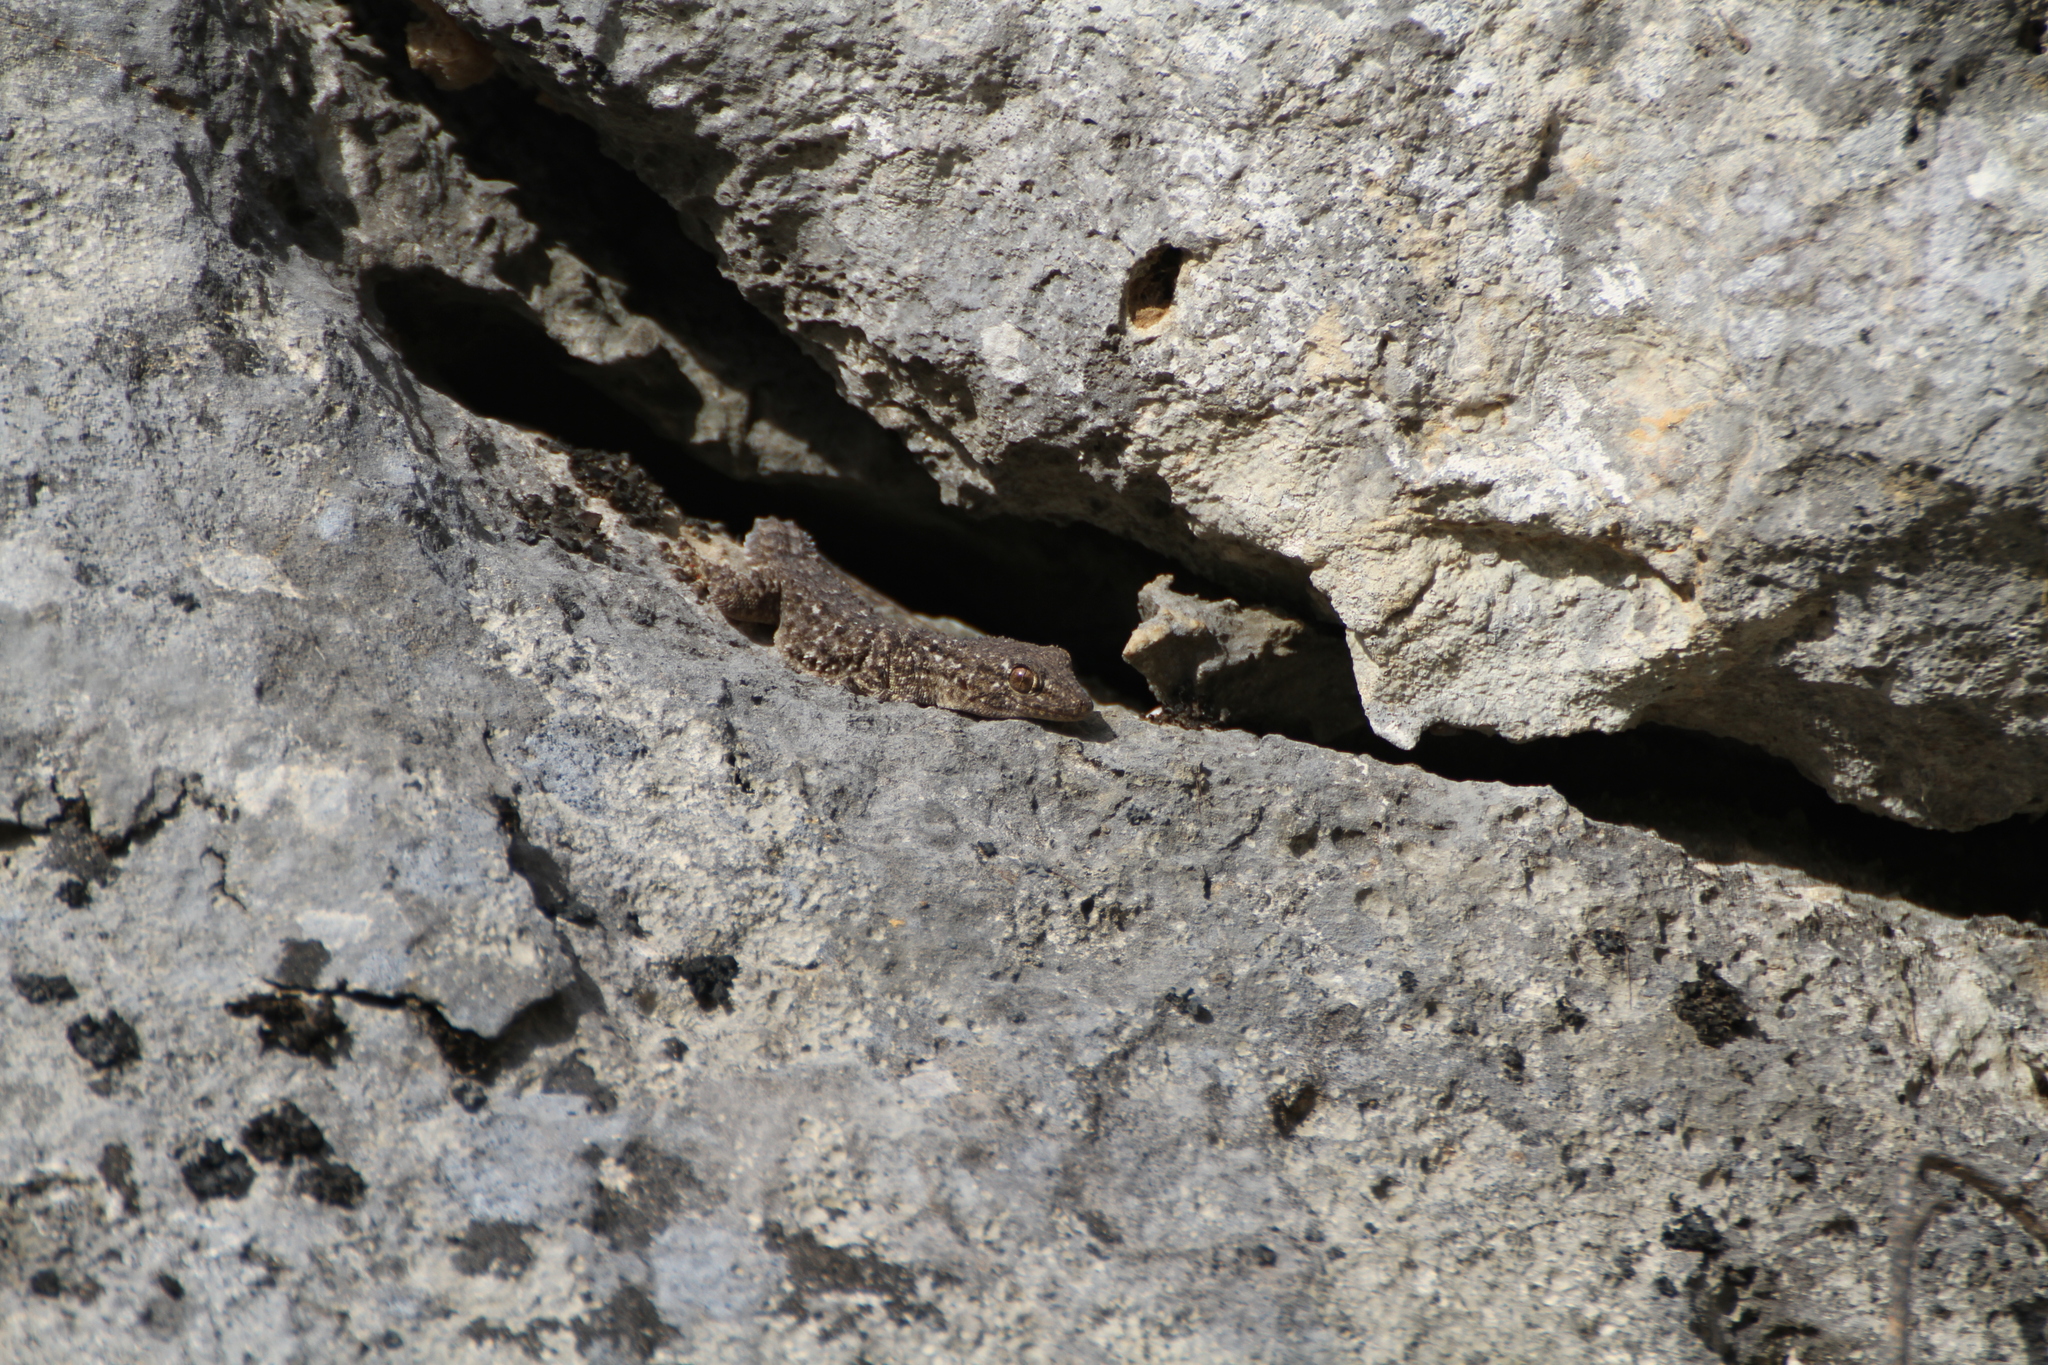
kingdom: Animalia
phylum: Chordata
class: Squamata
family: Phyllodactylidae
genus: Tarentola
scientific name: Tarentola mauritanica
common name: Moorish gecko
